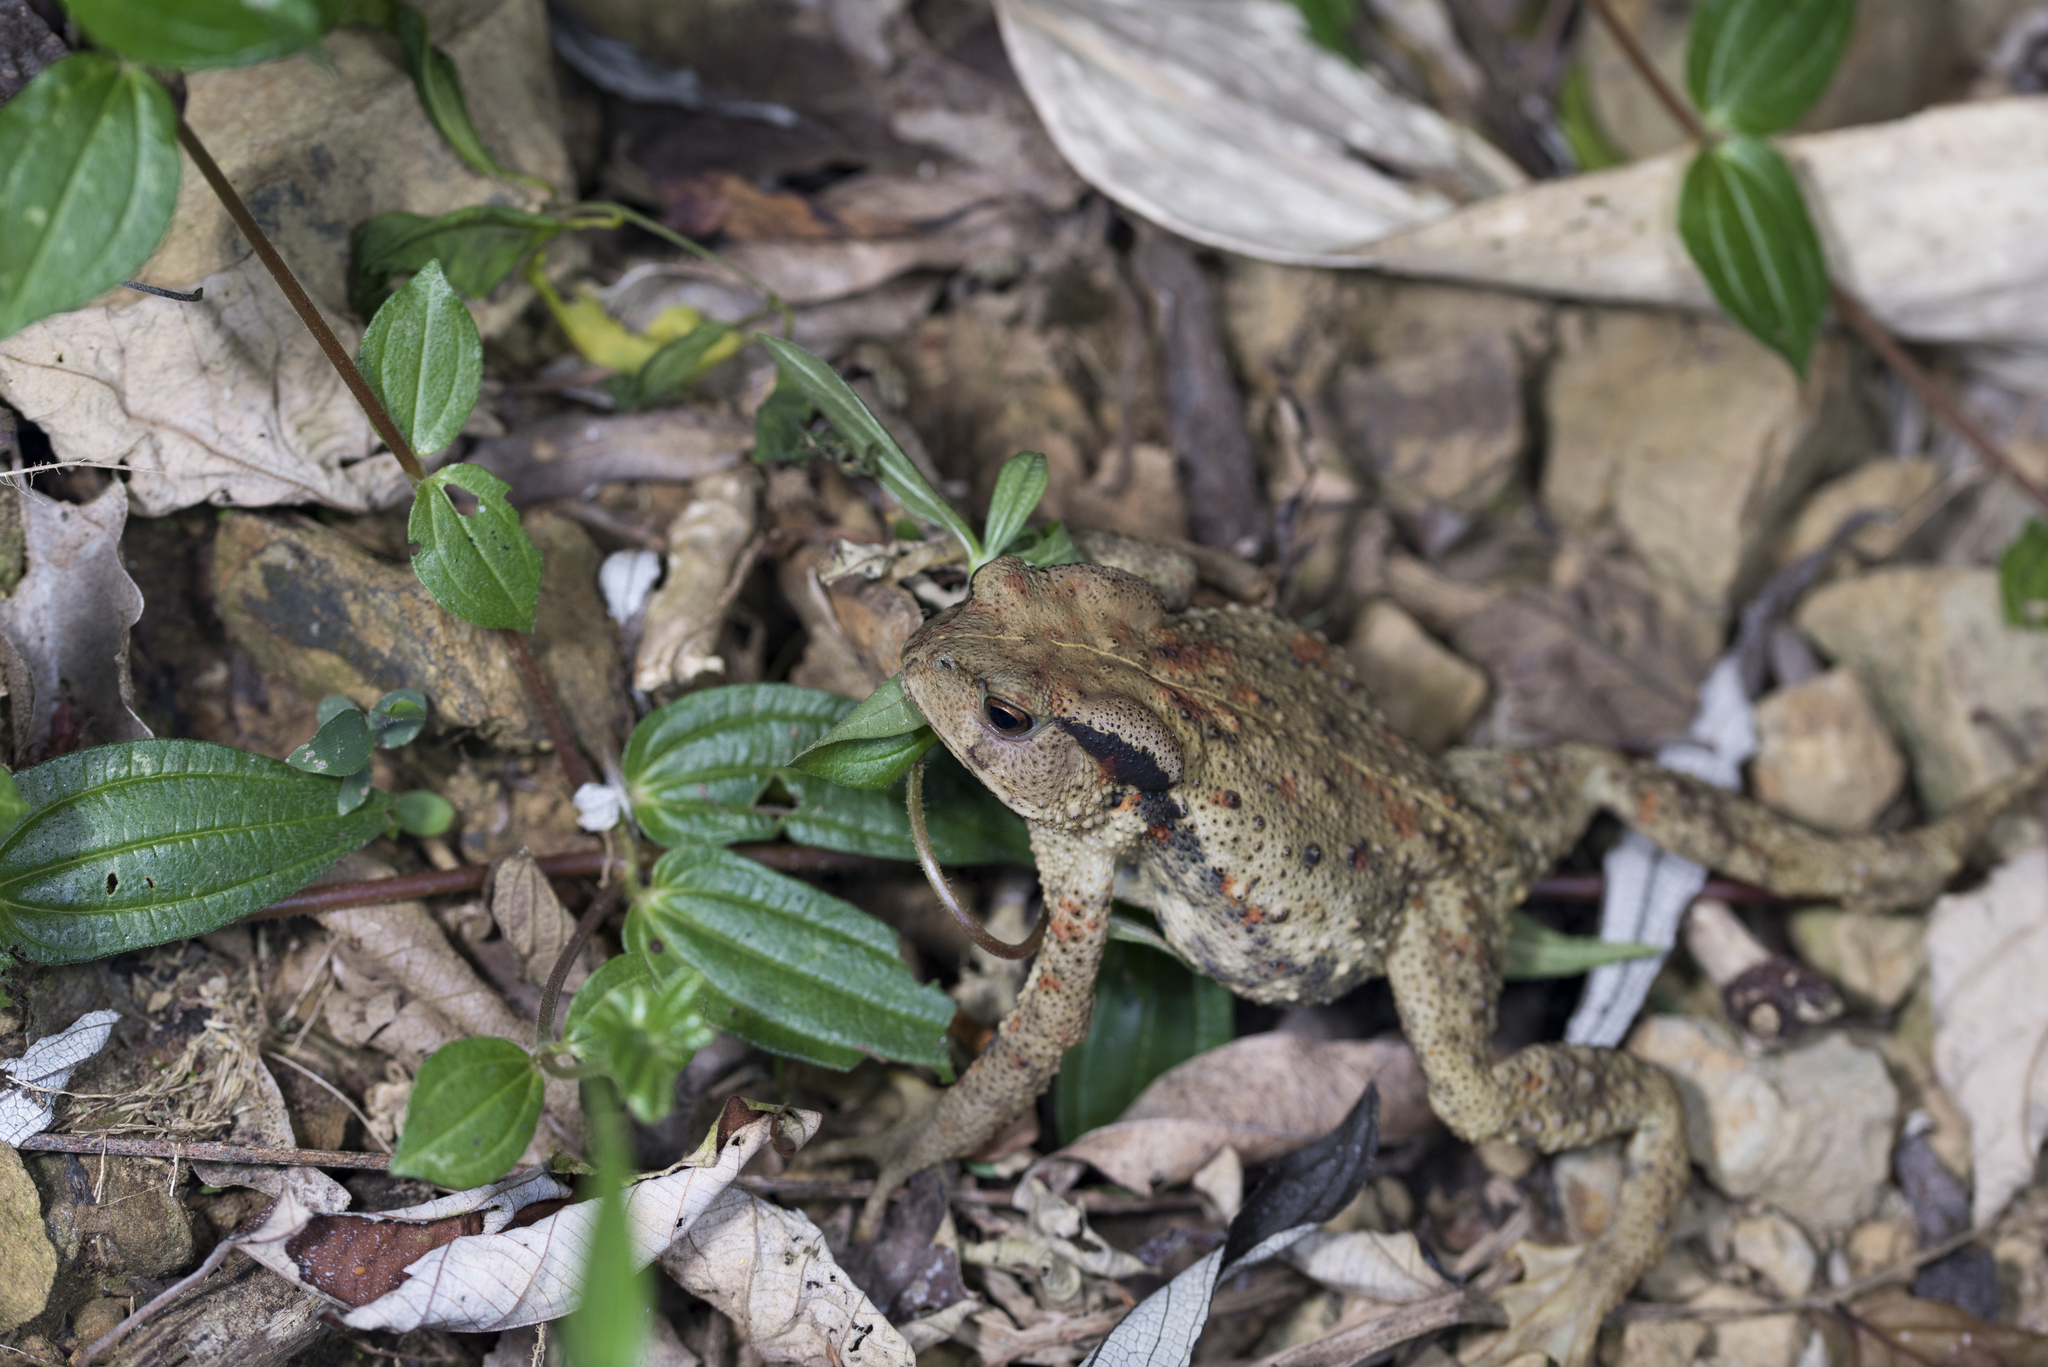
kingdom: Animalia
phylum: Chordata
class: Amphibia
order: Anura
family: Bufonidae
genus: Bufo
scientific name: Bufo bankorensis
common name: Bankor toad
